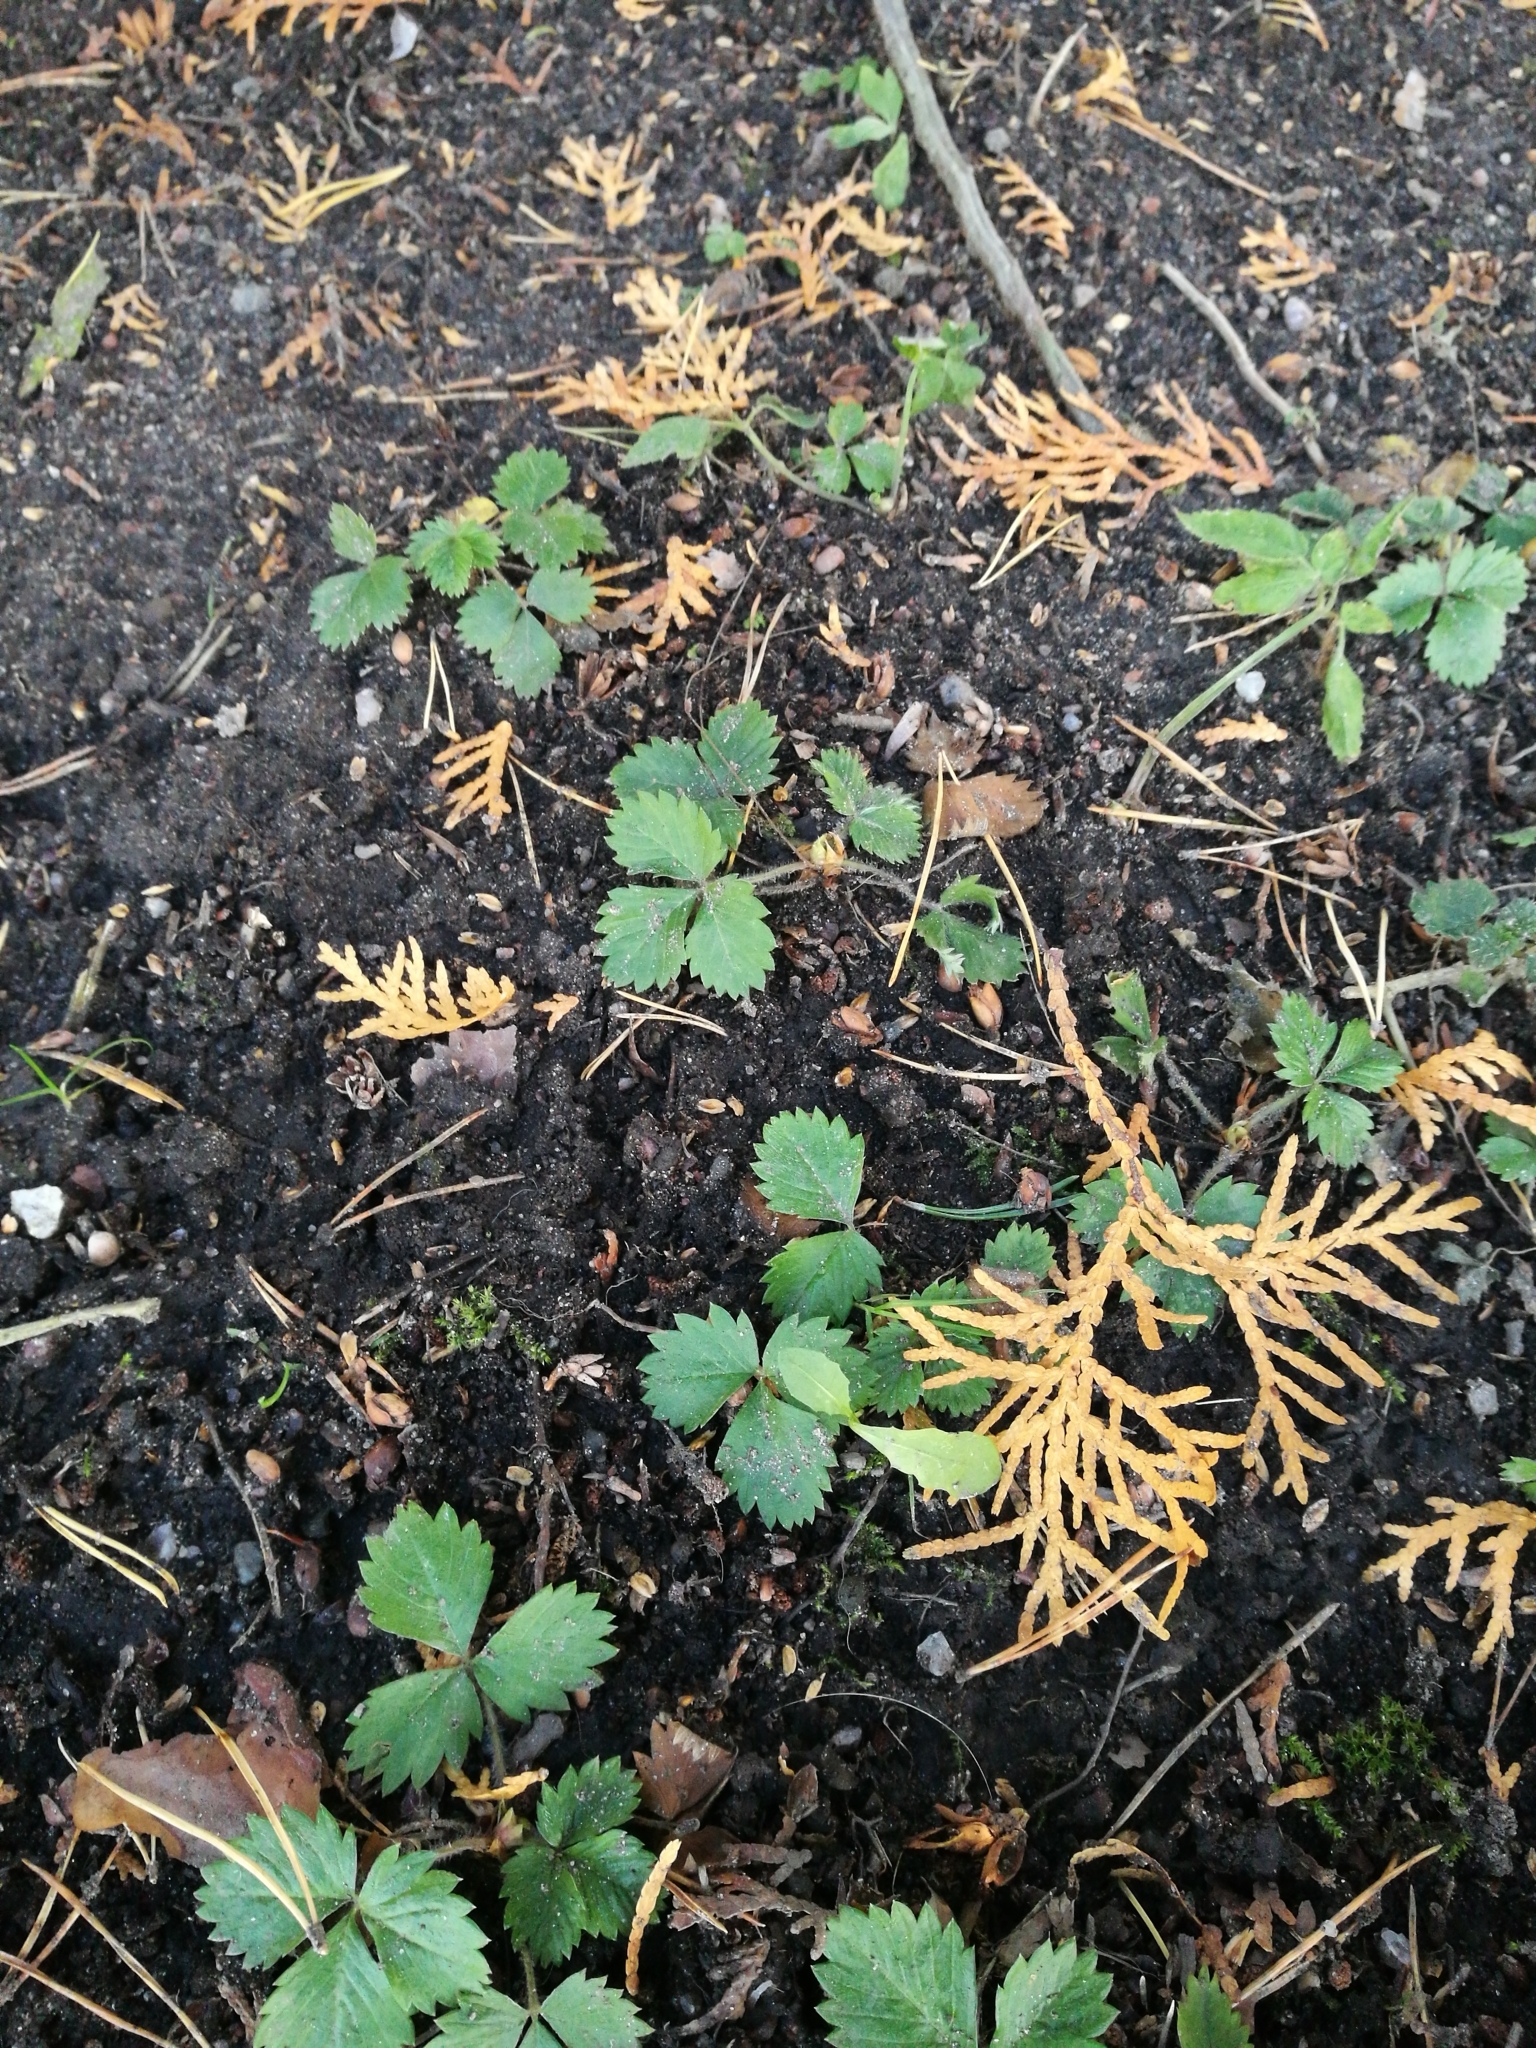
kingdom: Plantae
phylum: Tracheophyta
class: Magnoliopsida
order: Rosales
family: Rosaceae
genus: Fragaria
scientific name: Fragaria vesca
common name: Wild strawberry
